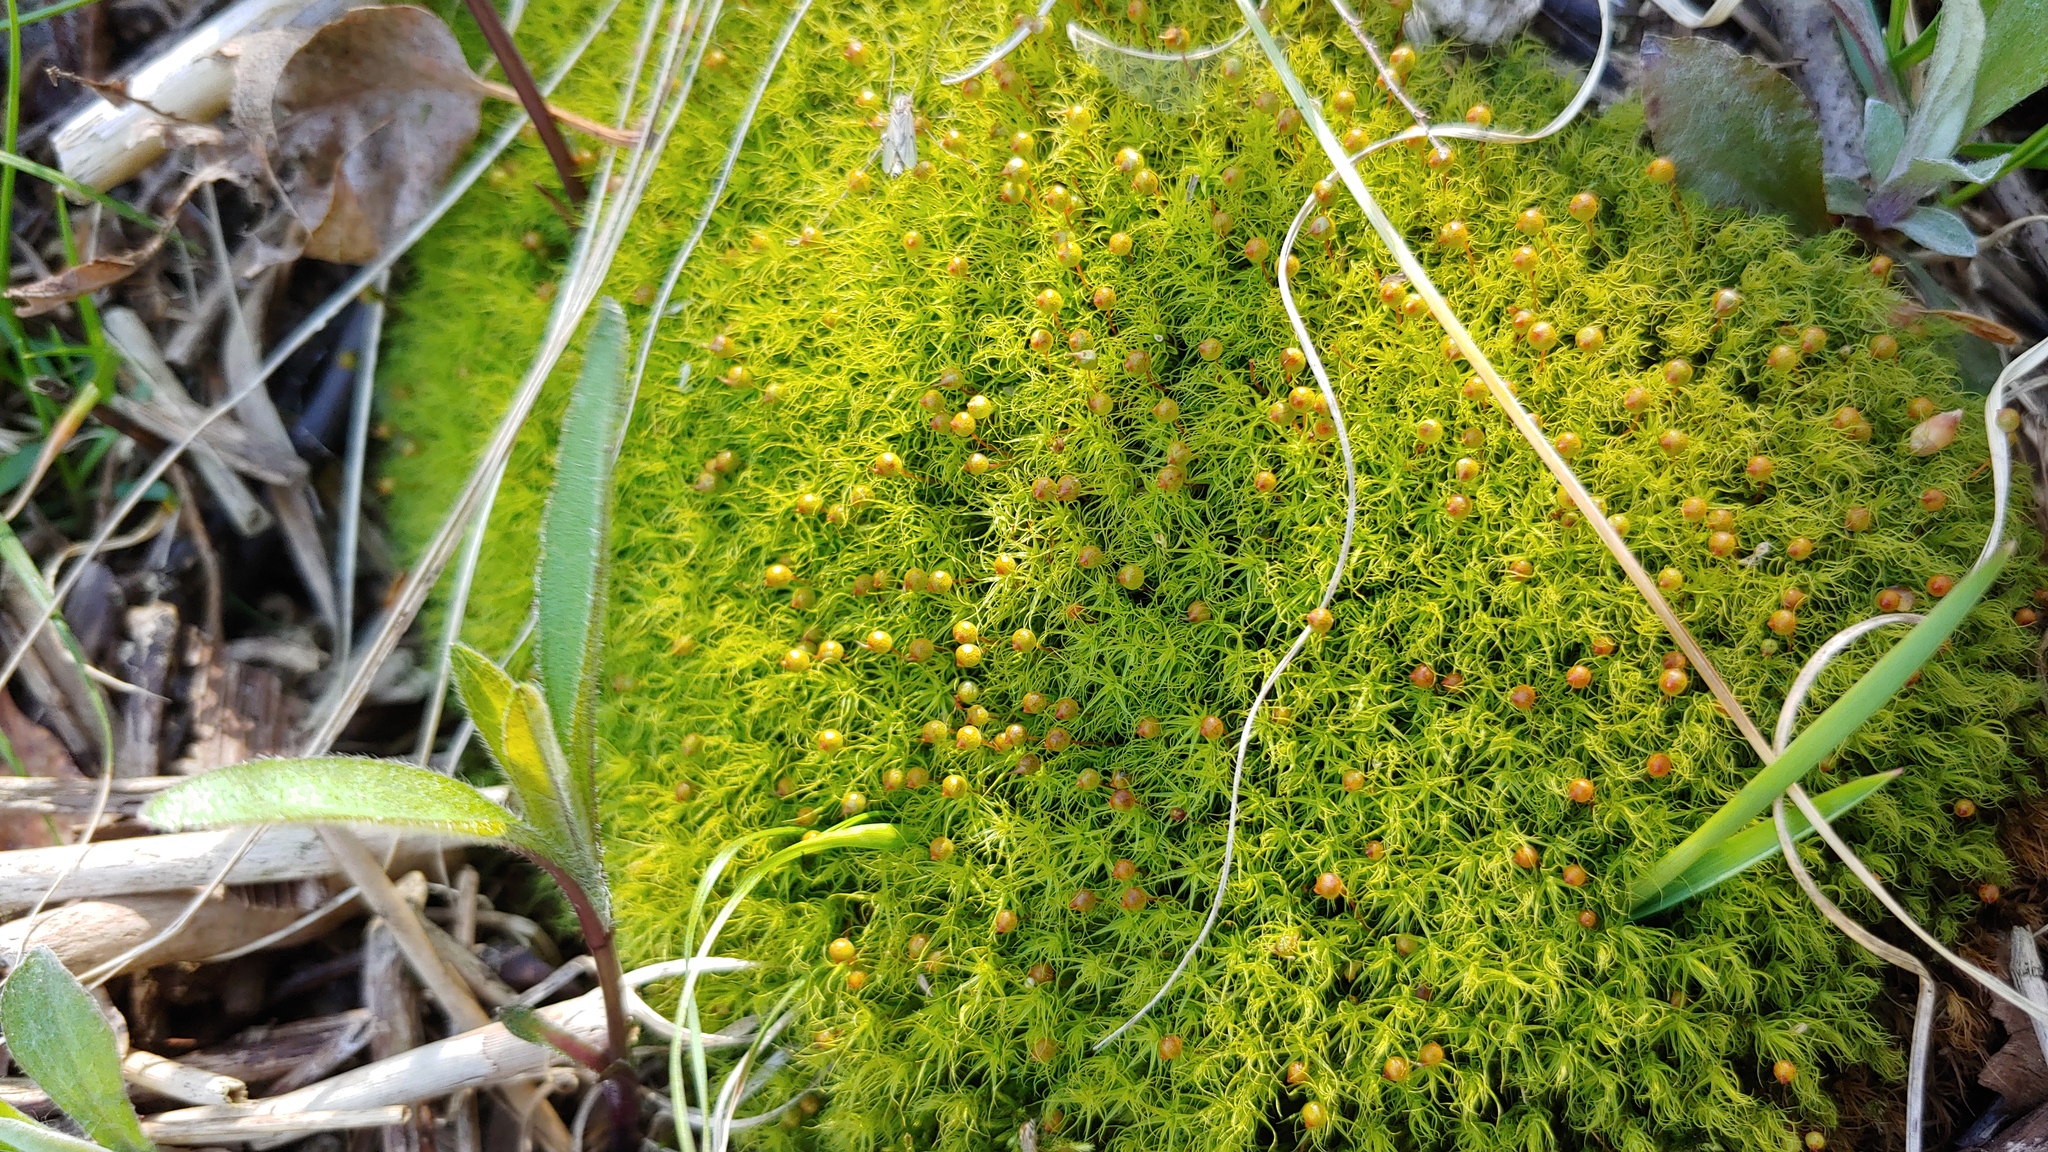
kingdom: Plantae
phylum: Bryophyta
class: Bryopsida
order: Bartramiales
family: Bartramiaceae
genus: Bartramia
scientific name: Bartramia ithyphylla
